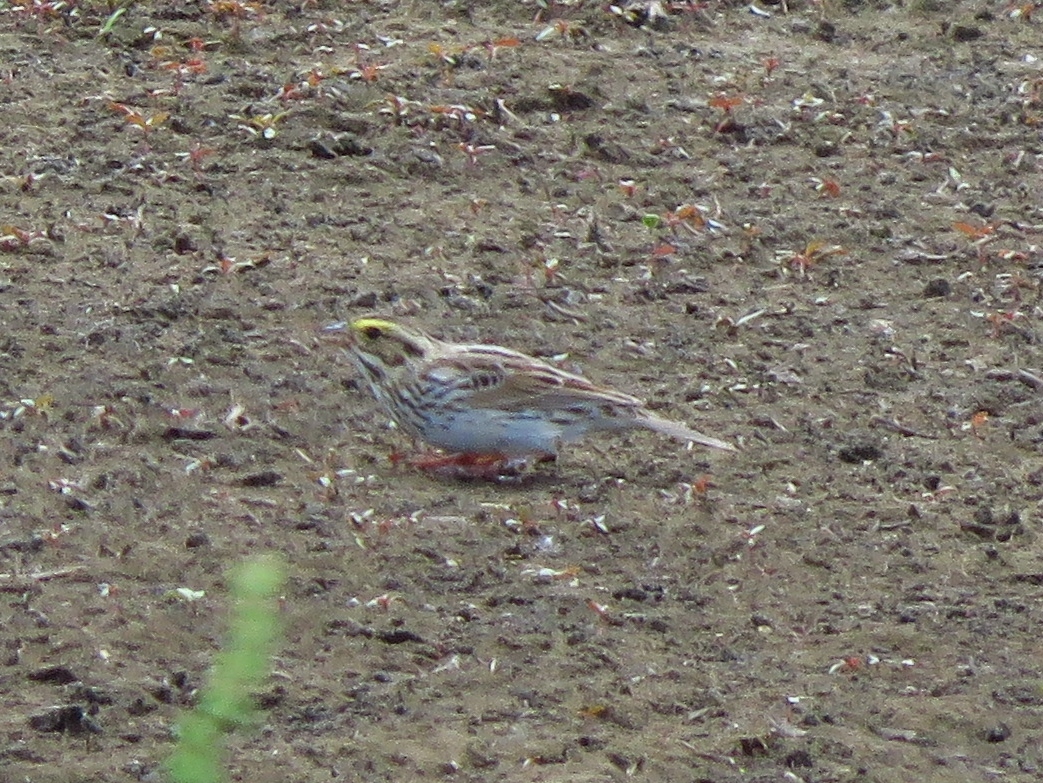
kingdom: Animalia
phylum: Chordata
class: Aves
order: Passeriformes
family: Passerellidae
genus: Passerculus
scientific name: Passerculus sandwichensis
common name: Savannah sparrow
